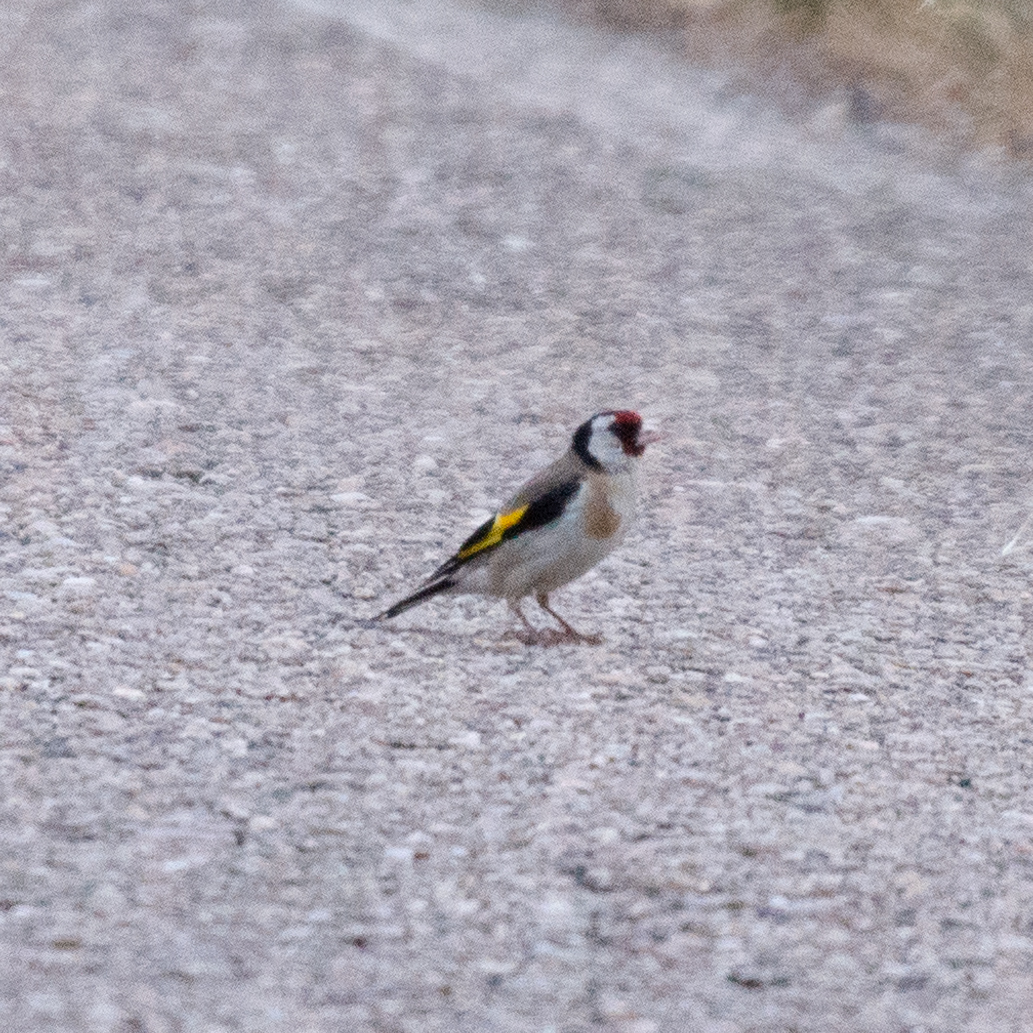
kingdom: Animalia
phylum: Chordata
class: Aves
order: Passeriformes
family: Fringillidae
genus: Carduelis
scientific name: Carduelis carduelis
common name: European goldfinch
